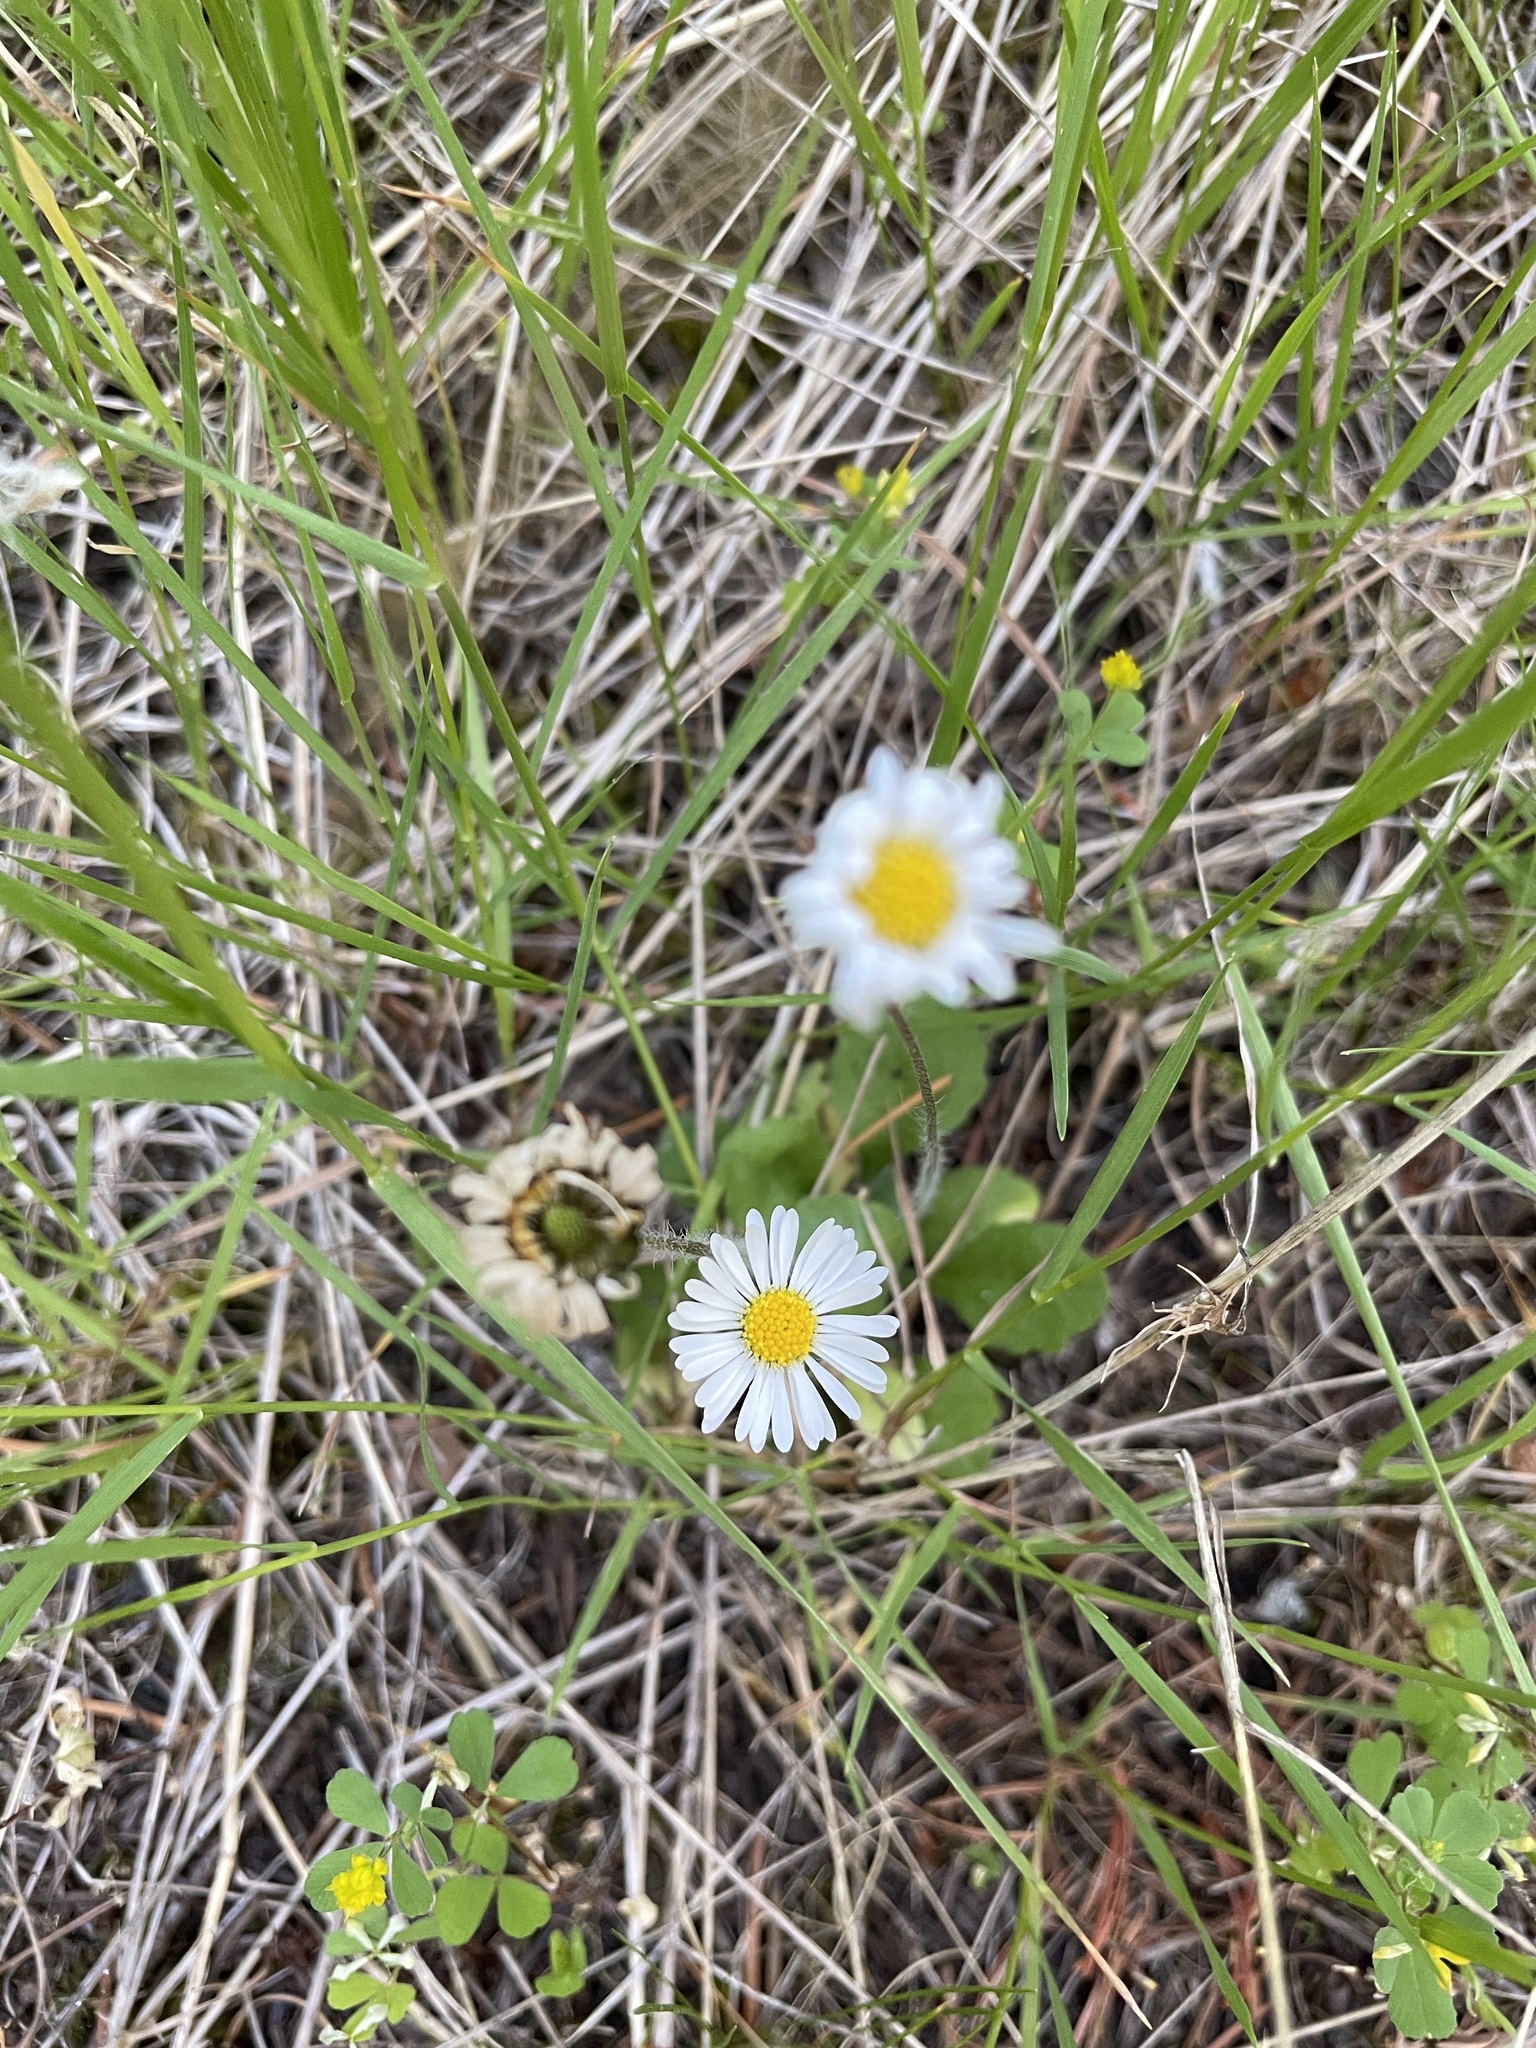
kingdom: Plantae
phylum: Tracheophyta
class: Magnoliopsida
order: Asterales
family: Asteraceae
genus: Bellis
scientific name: Bellis perennis
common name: Lawndaisy
